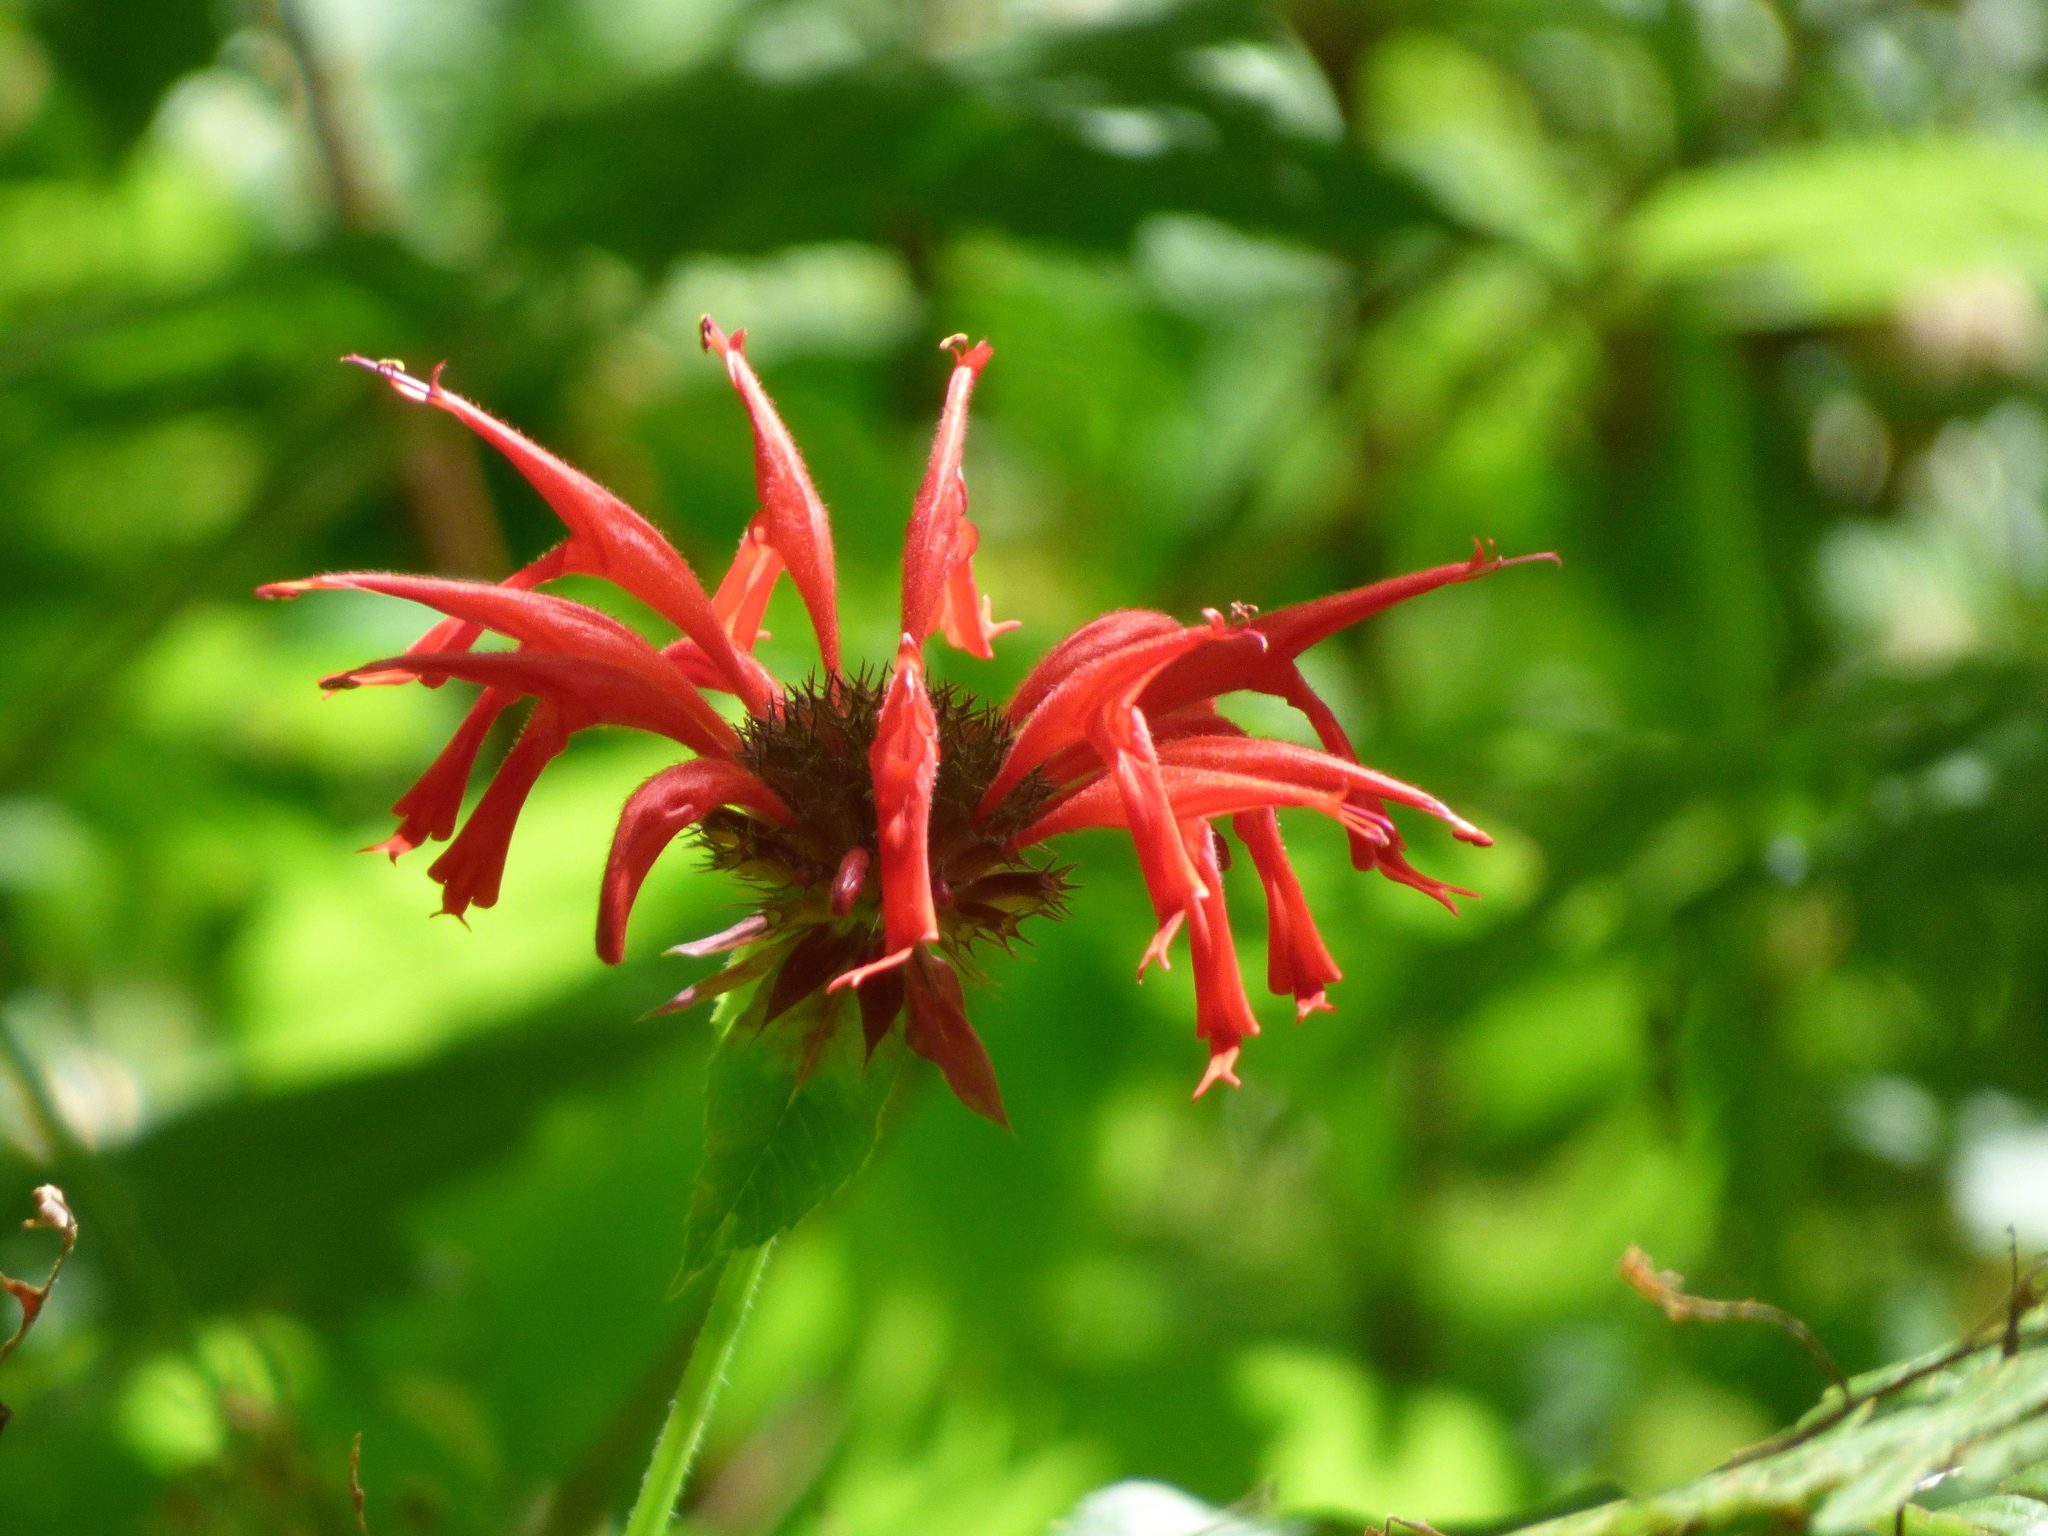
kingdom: Plantae
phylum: Tracheophyta
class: Magnoliopsida
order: Lamiales
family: Lamiaceae
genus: Monarda
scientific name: Monarda didyma
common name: Beebalm
